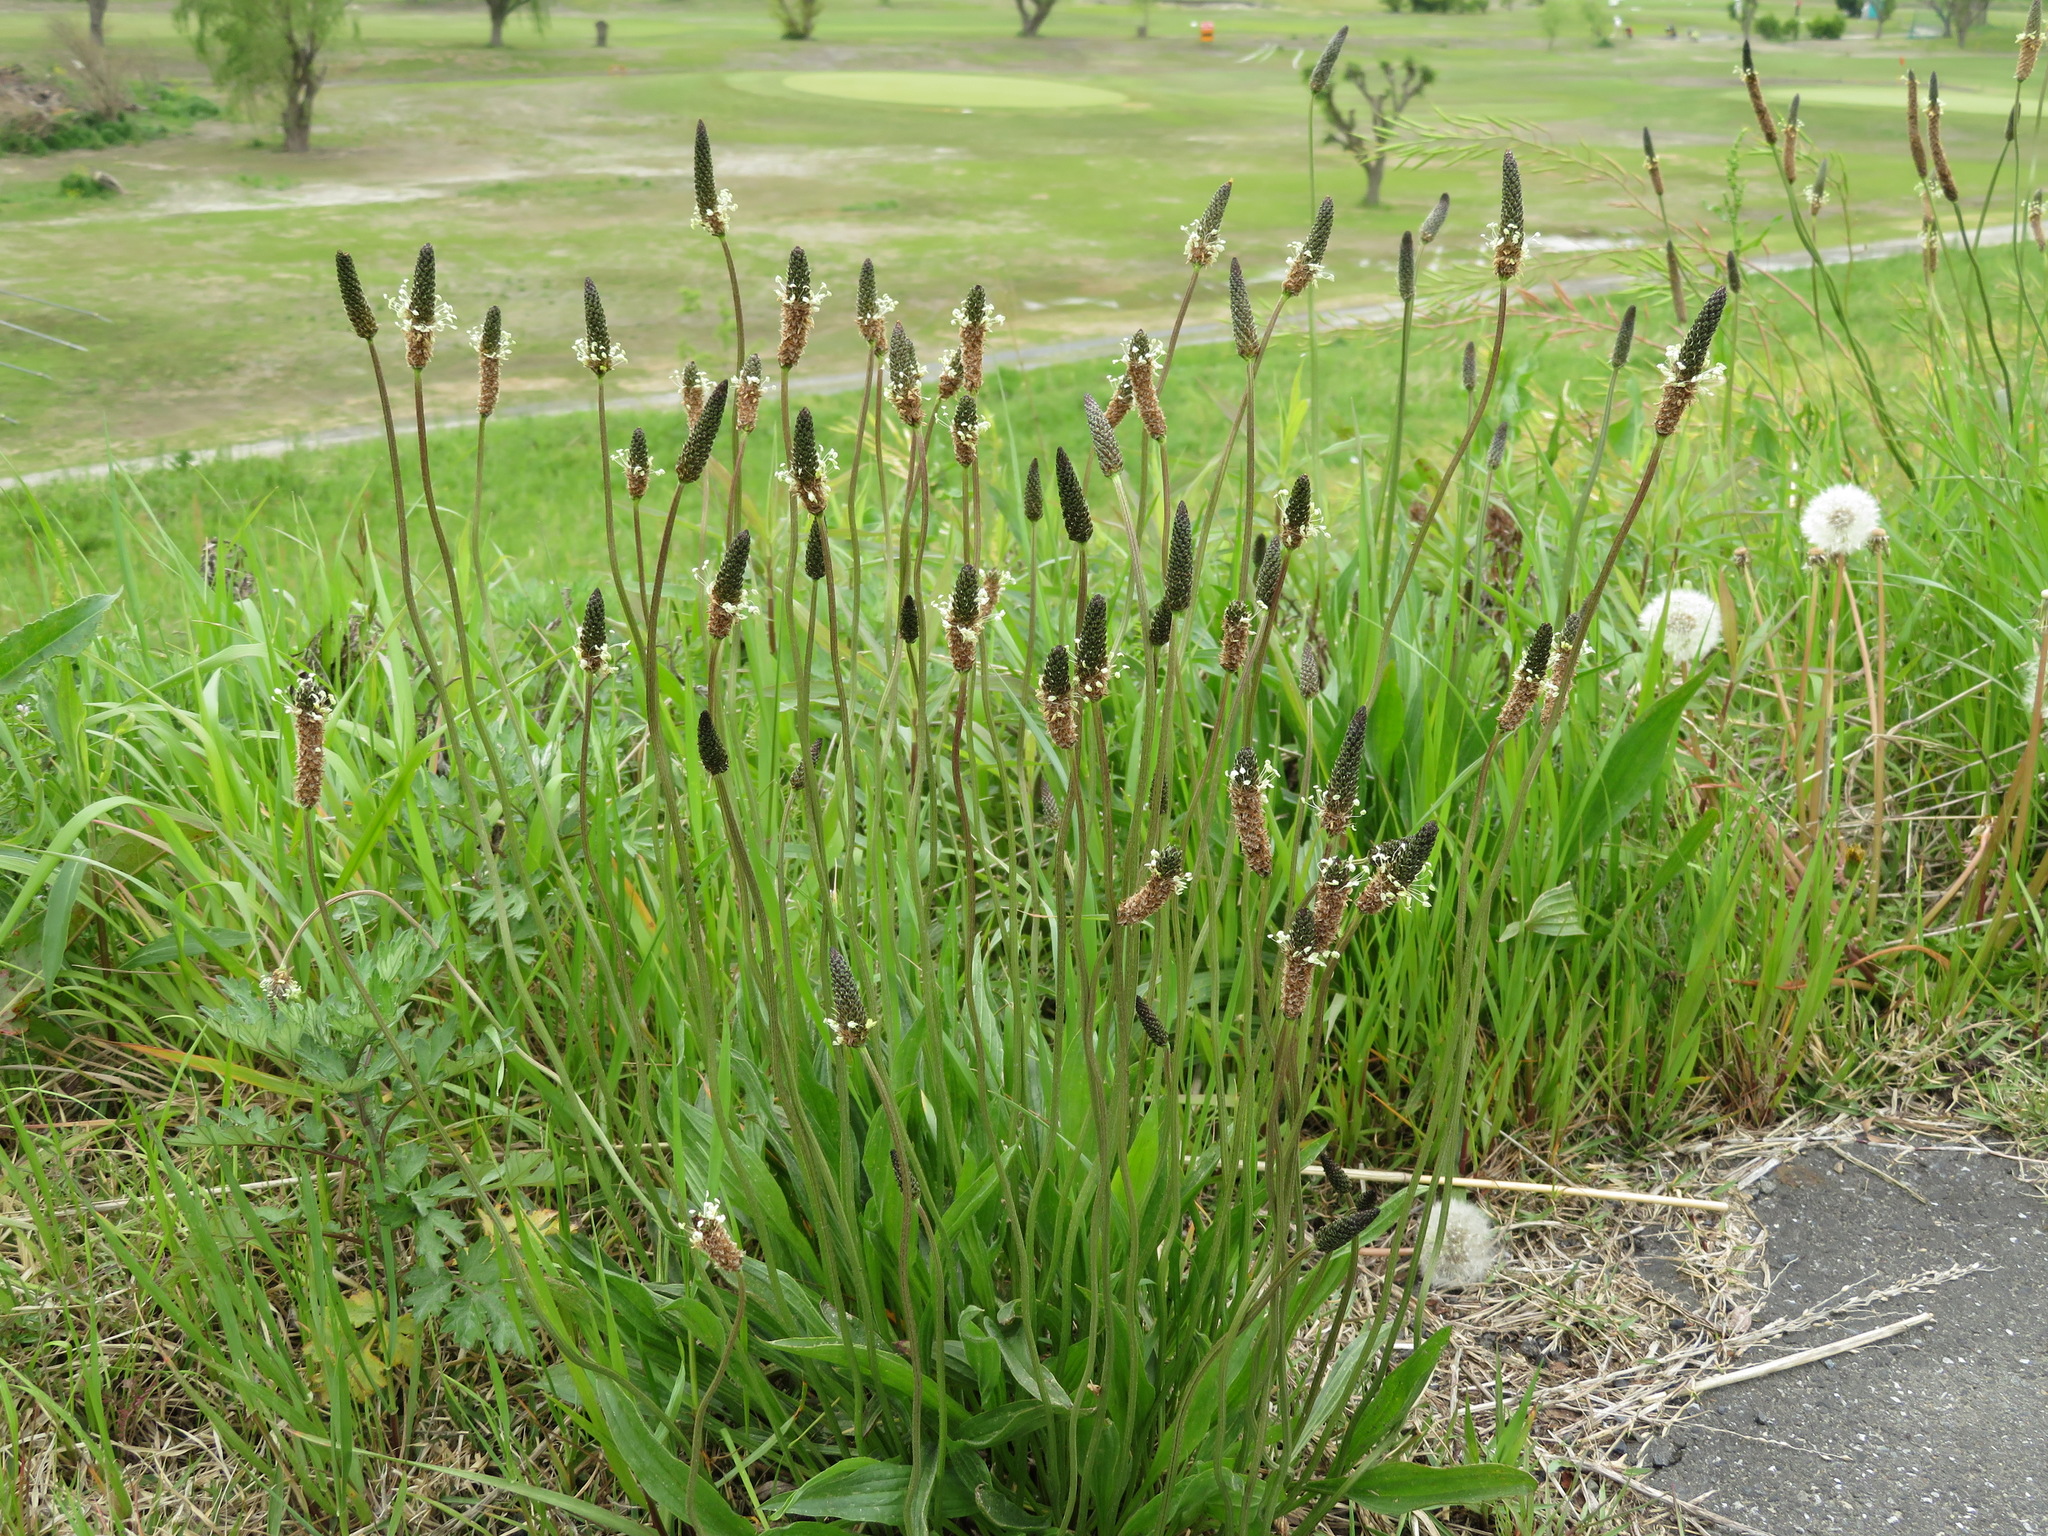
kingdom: Plantae
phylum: Tracheophyta
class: Magnoliopsida
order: Lamiales
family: Plantaginaceae
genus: Plantago
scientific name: Plantago lanceolata
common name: Ribwort plantain
